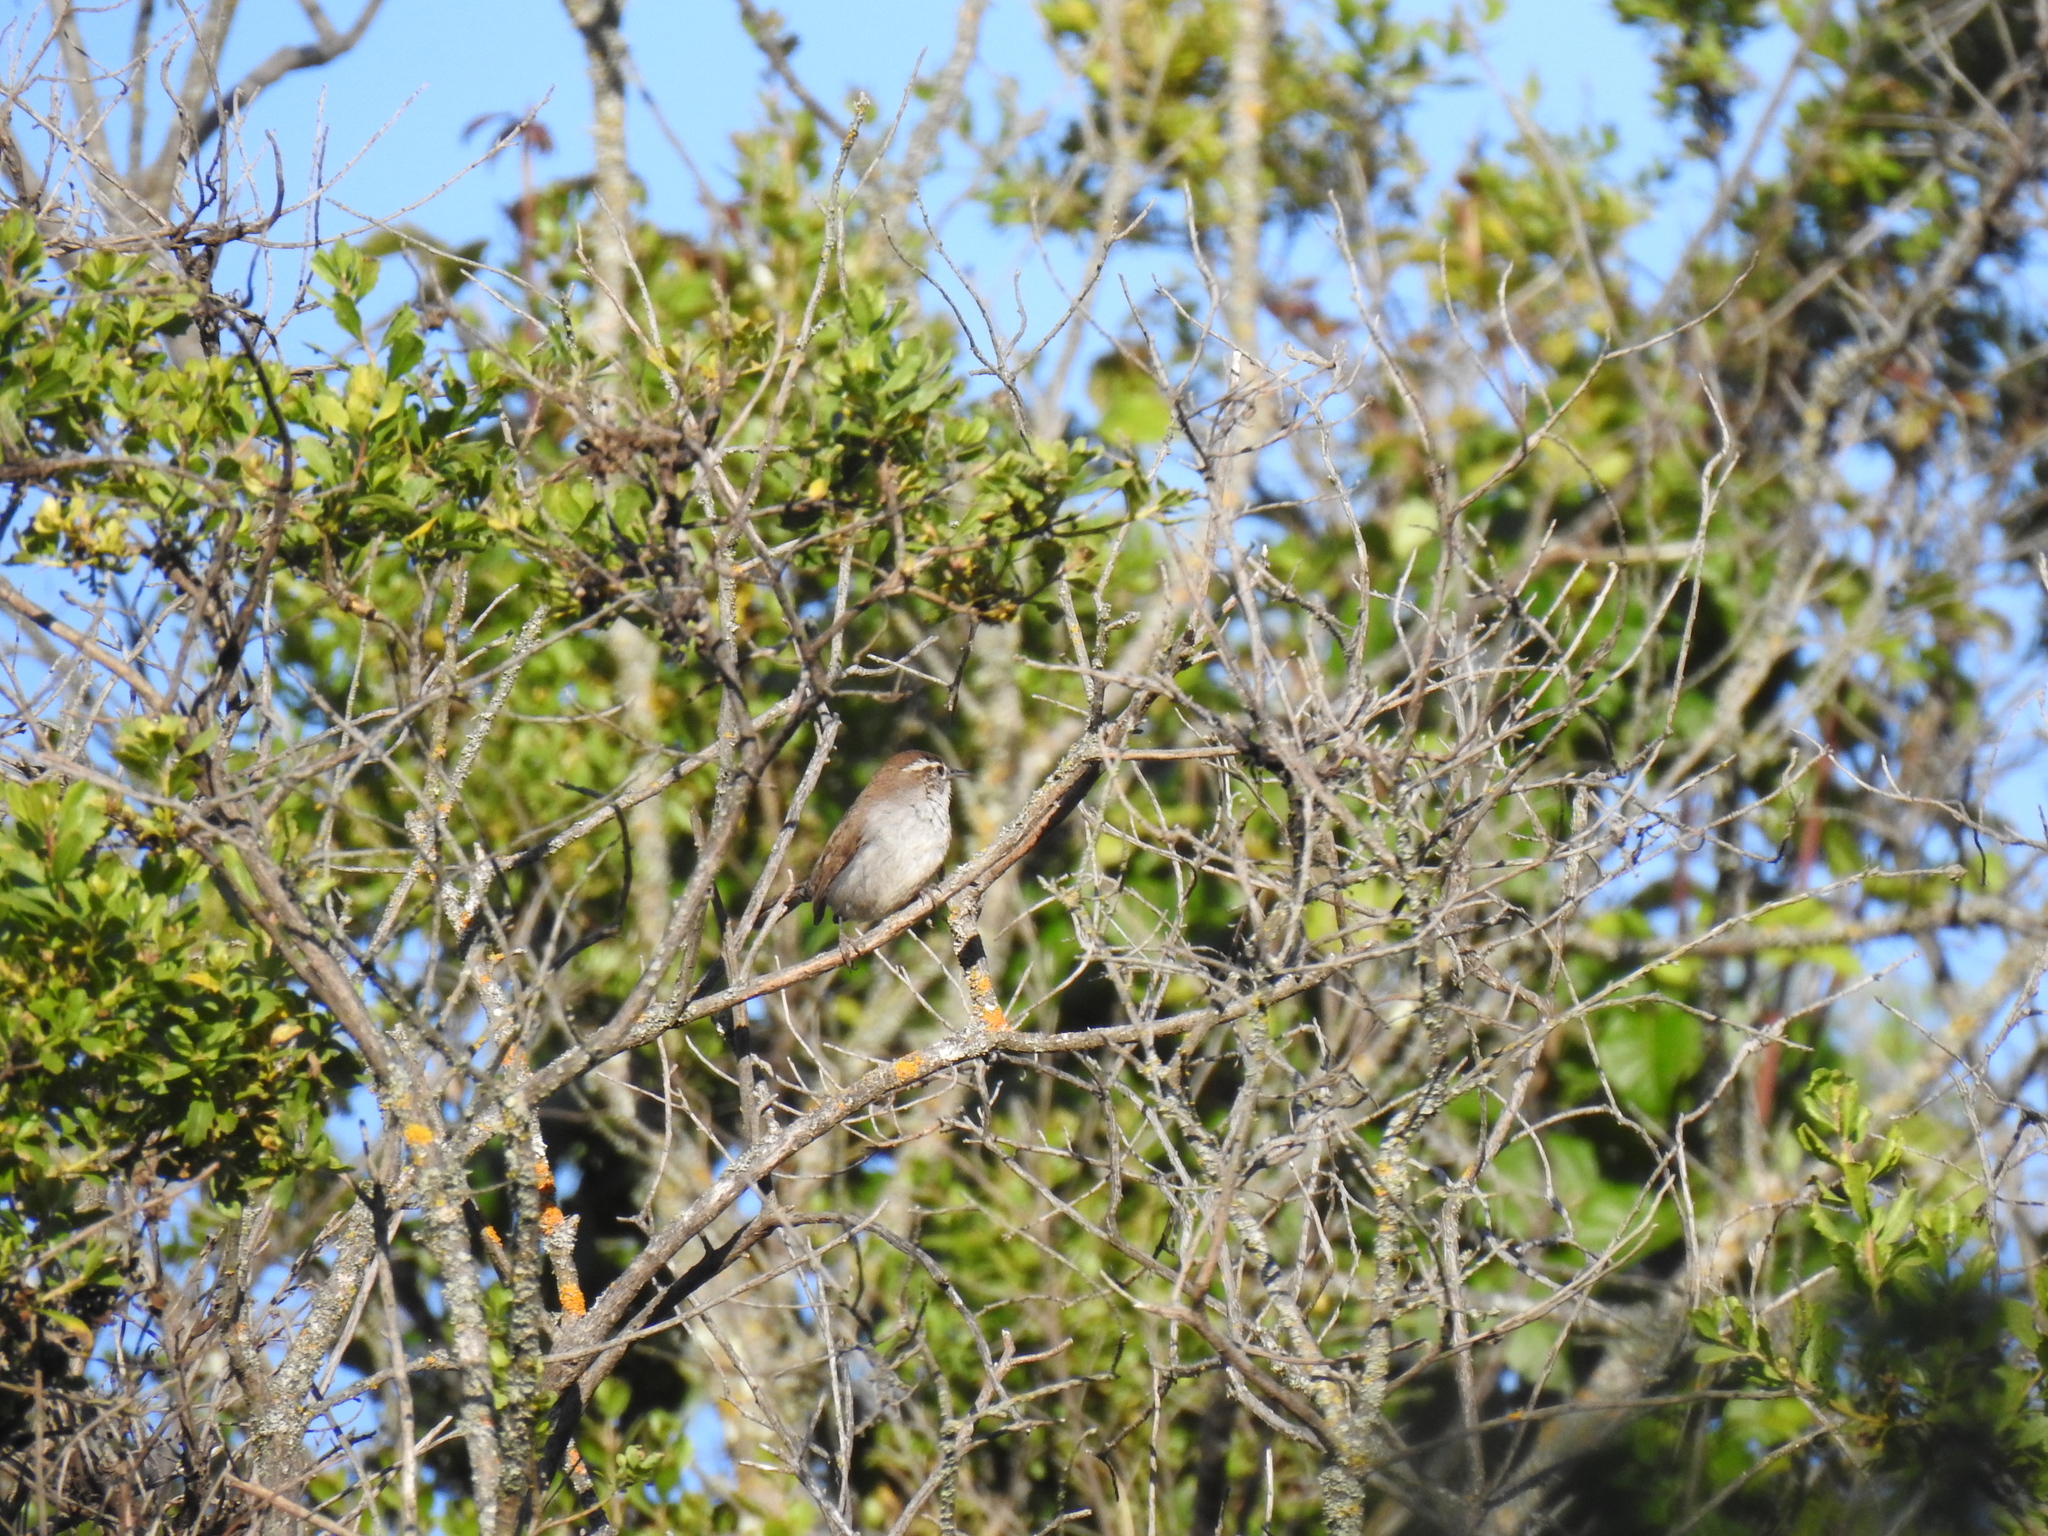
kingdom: Animalia
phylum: Chordata
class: Aves
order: Passeriformes
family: Troglodytidae
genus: Thryomanes
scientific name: Thryomanes bewickii
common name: Bewick's wren
